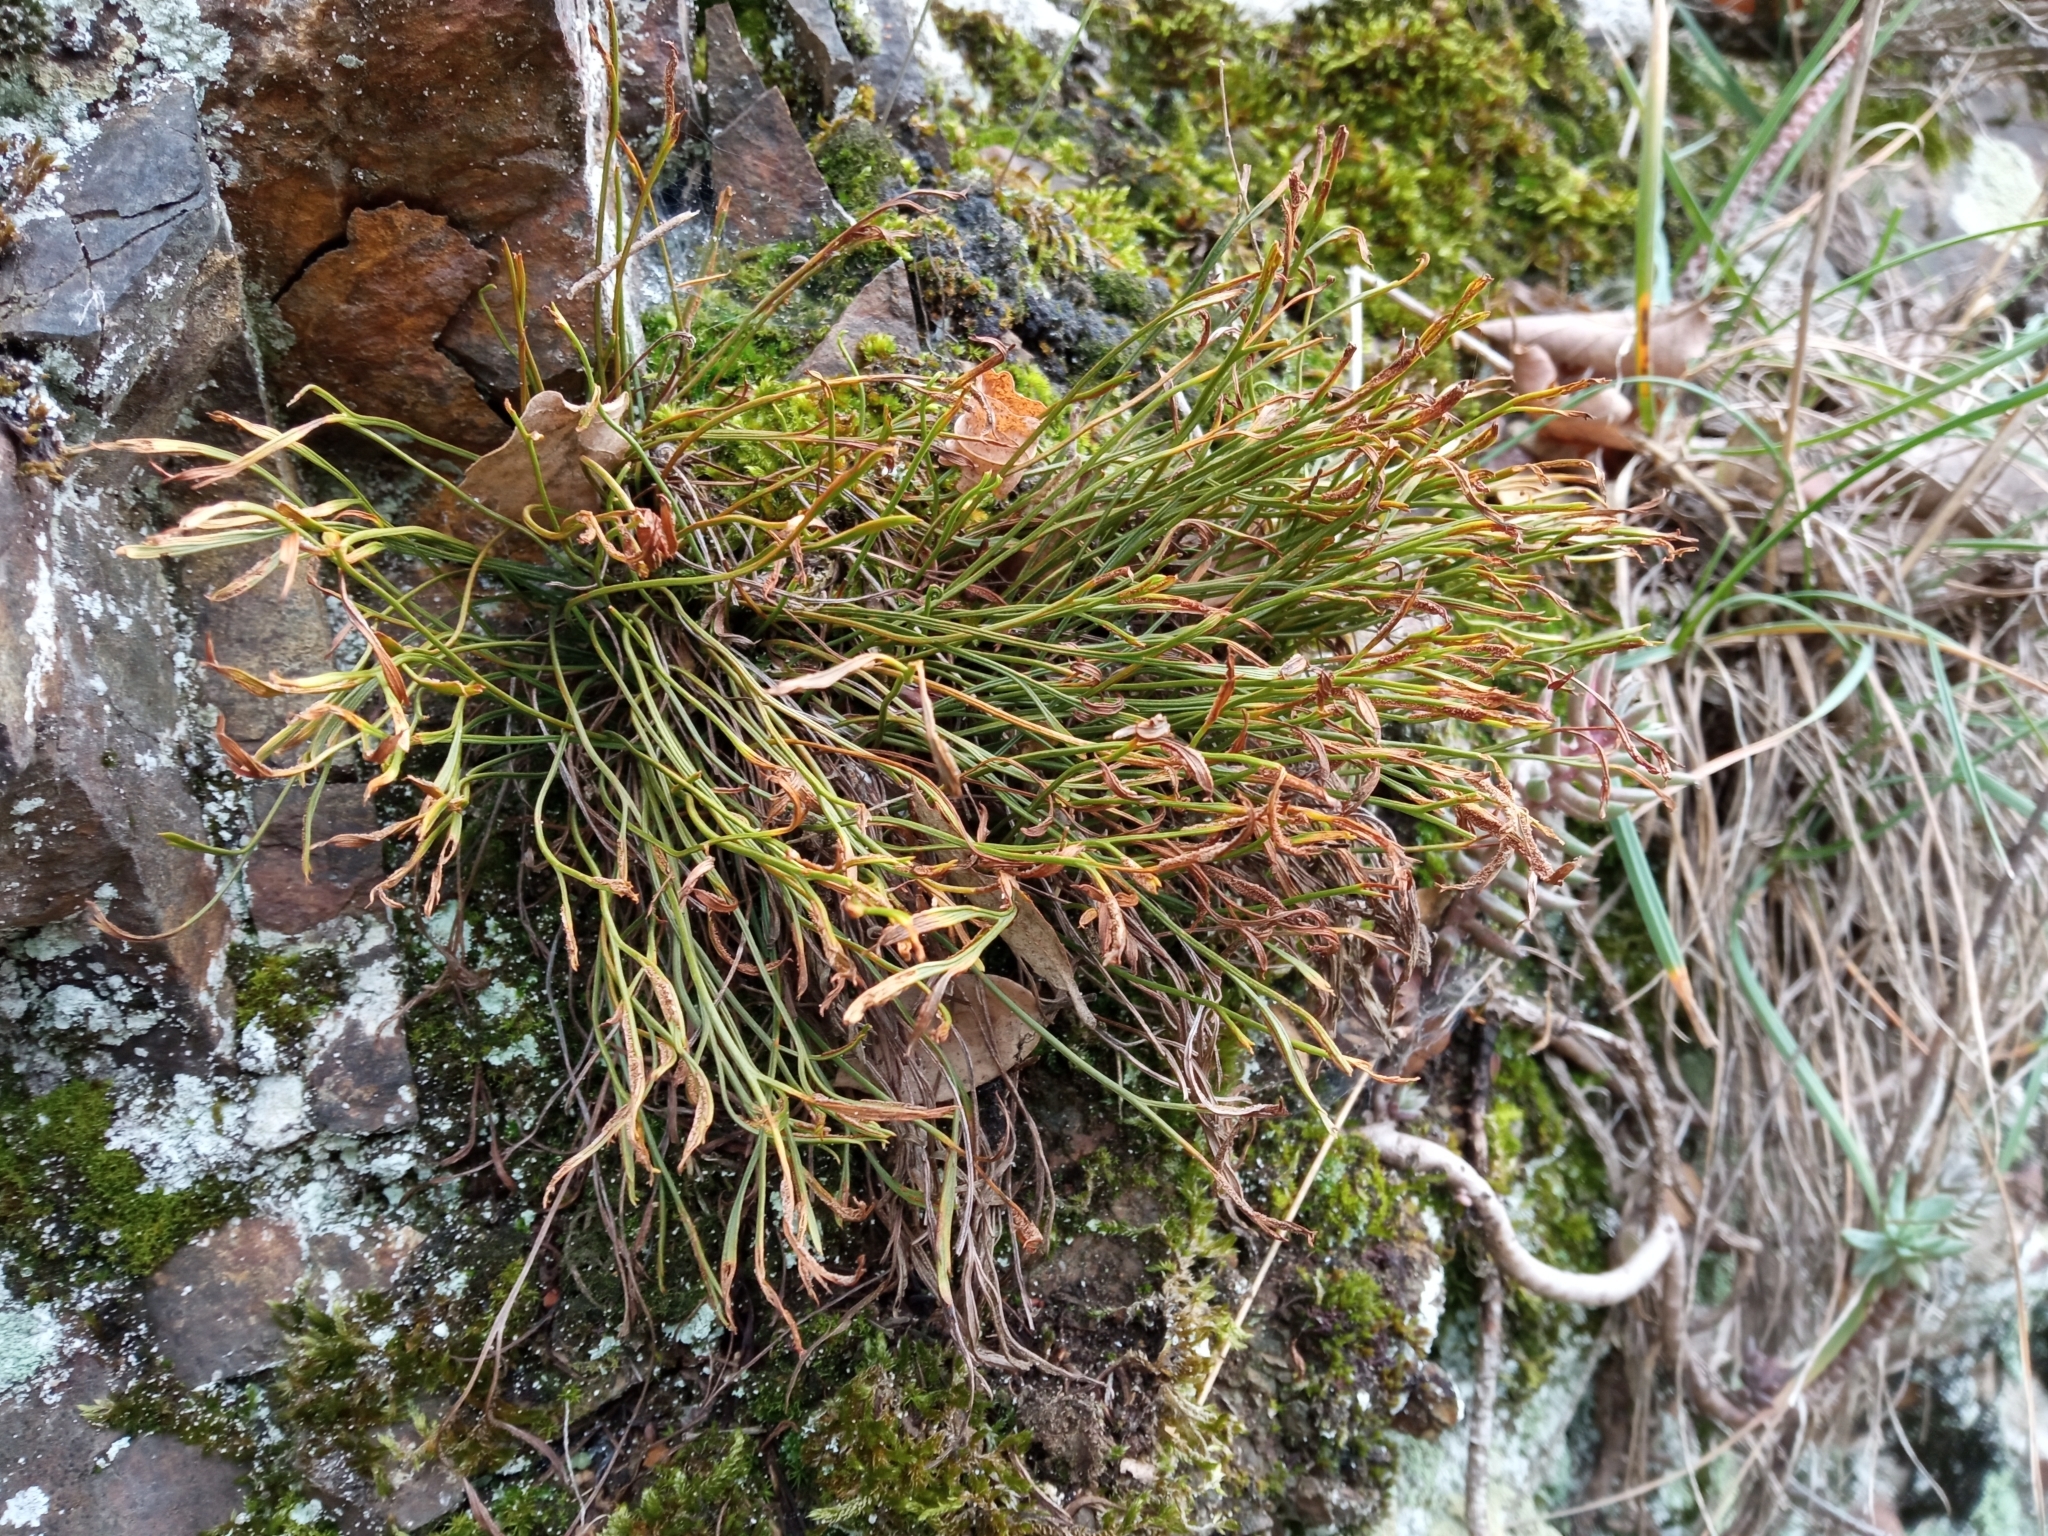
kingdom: Plantae
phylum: Tracheophyta
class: Polypodiopsida
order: Polypodiales
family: Aspleniaceae
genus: Asplenium
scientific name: Asplenium septentrionale
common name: Forked spleenwort
